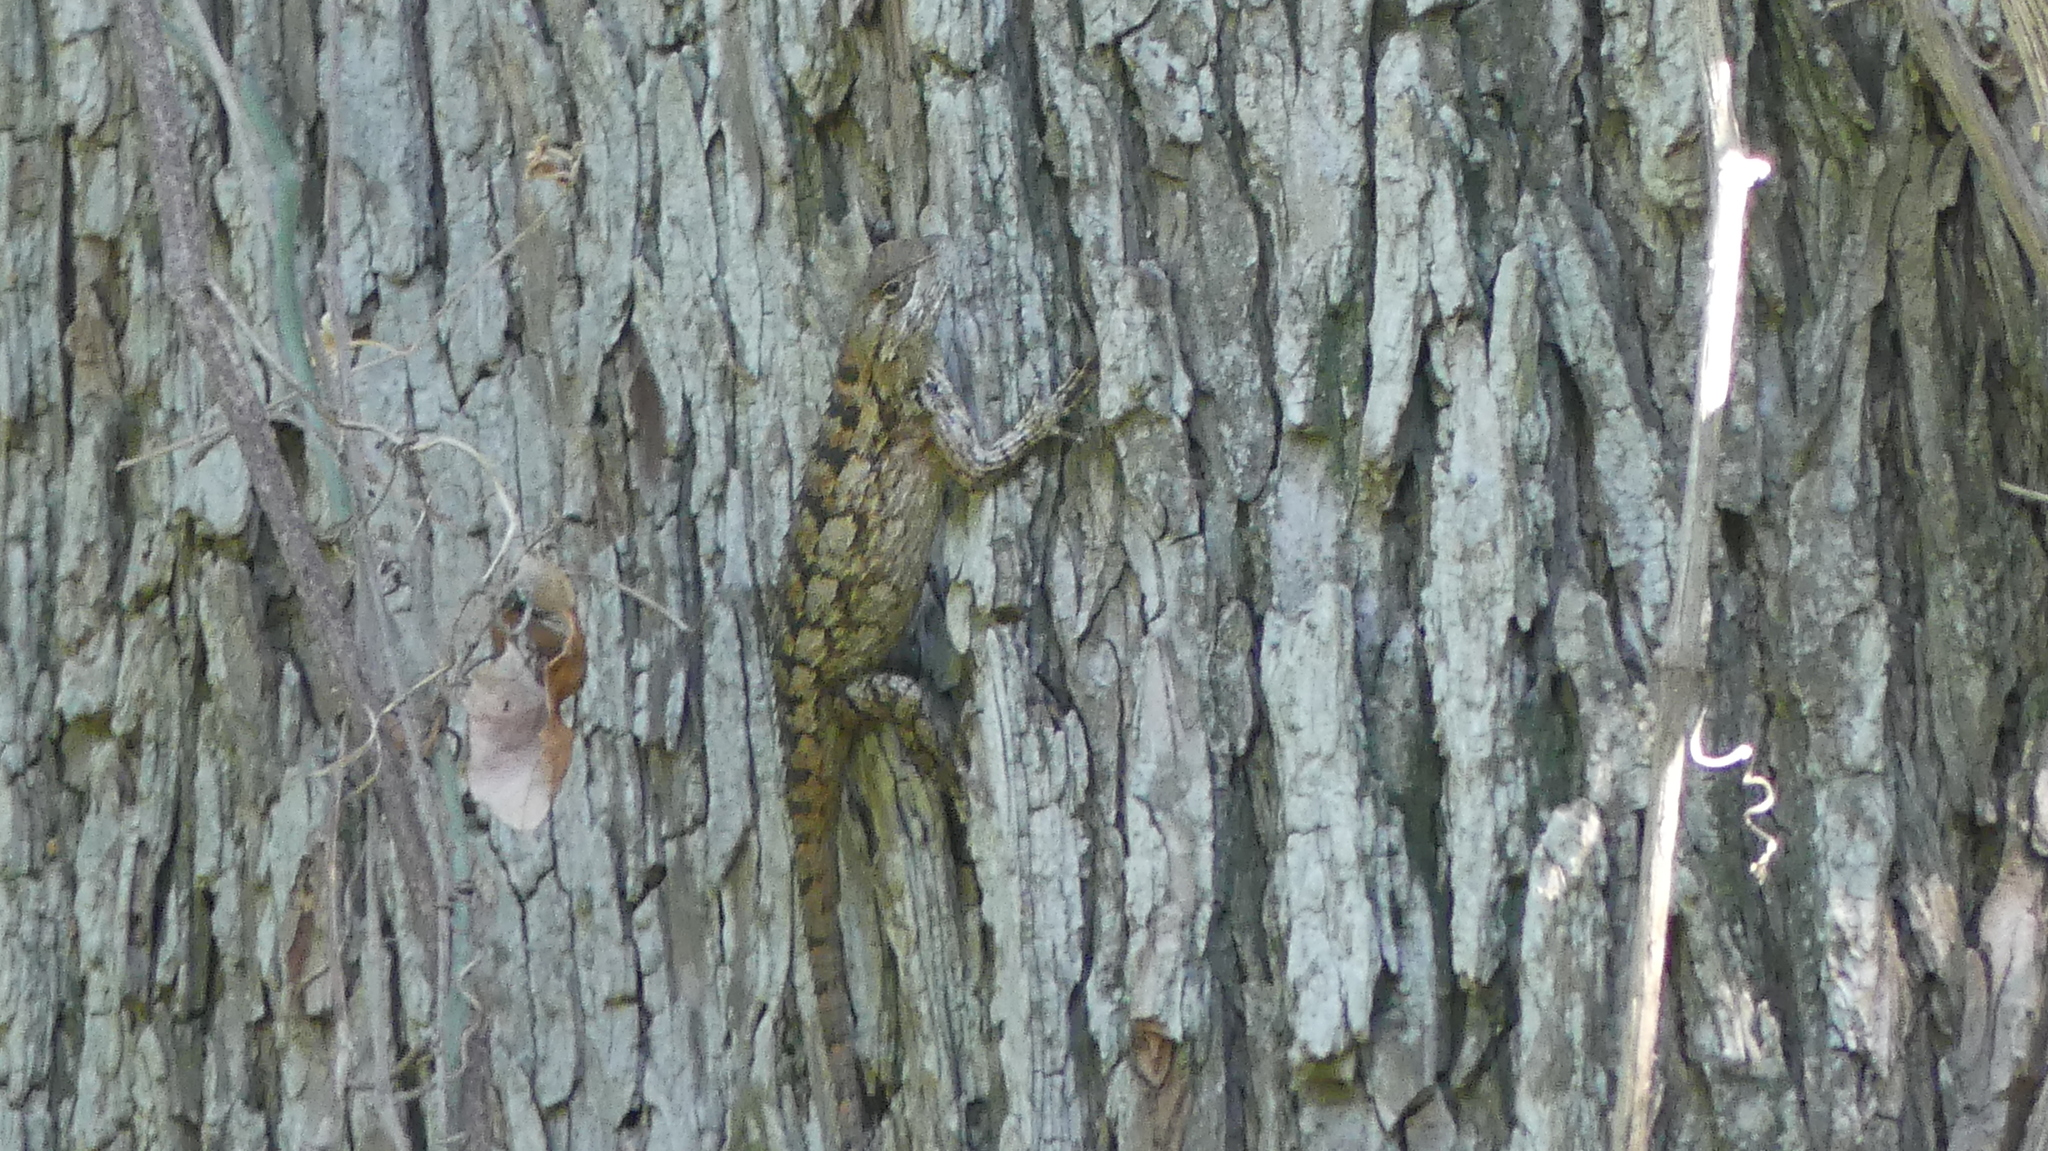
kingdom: Animalia
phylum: Chordata
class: Squamata
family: Phrynosomatidae
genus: Sceloporus
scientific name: Sceloporus olivaceus
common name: Texas spiny lizard
